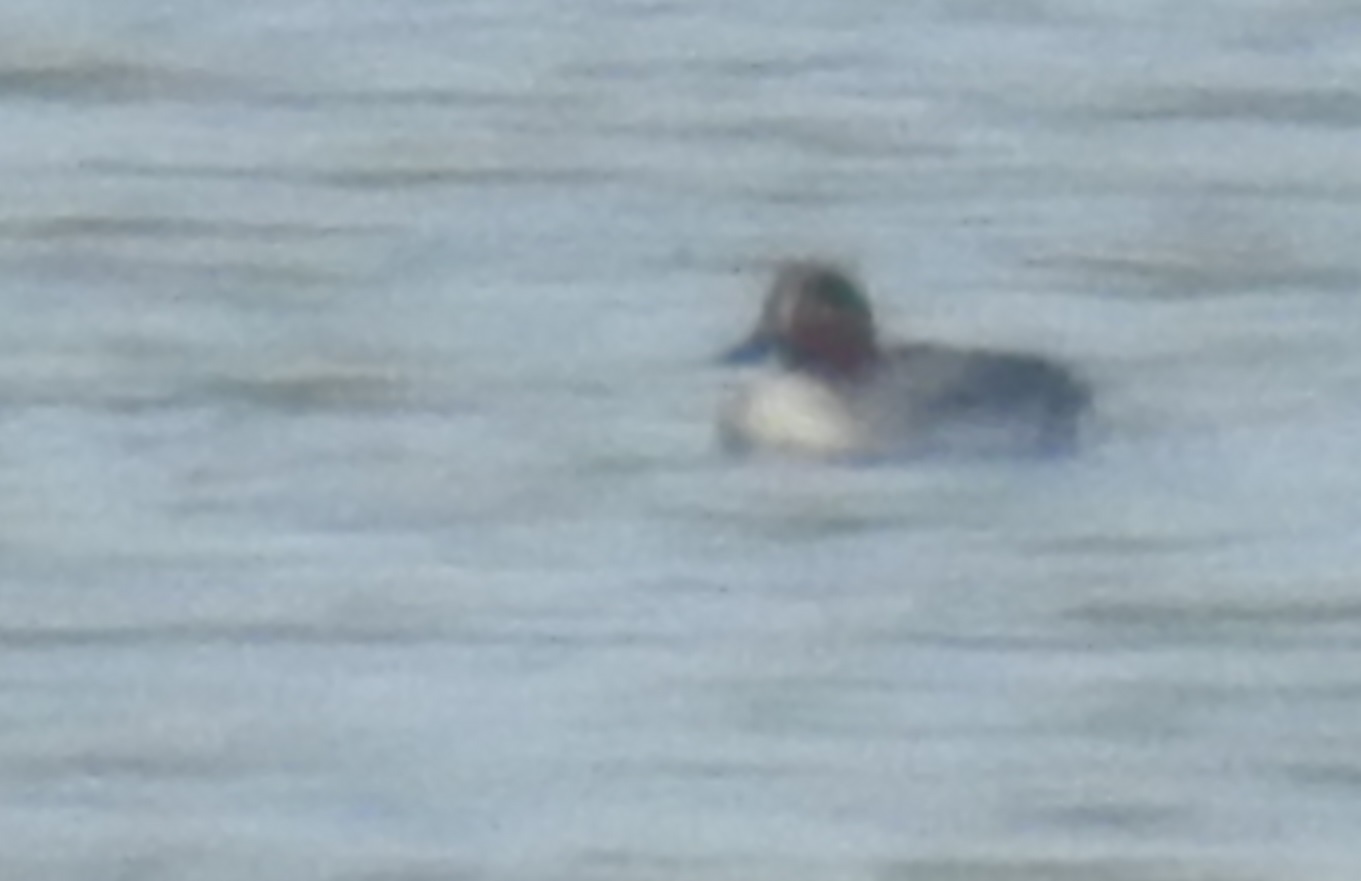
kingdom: Animalia
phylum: Chordata
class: Aves
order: Anseriformes
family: Anatidae
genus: Anas
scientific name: Anas crecca
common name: Eurasian teal
